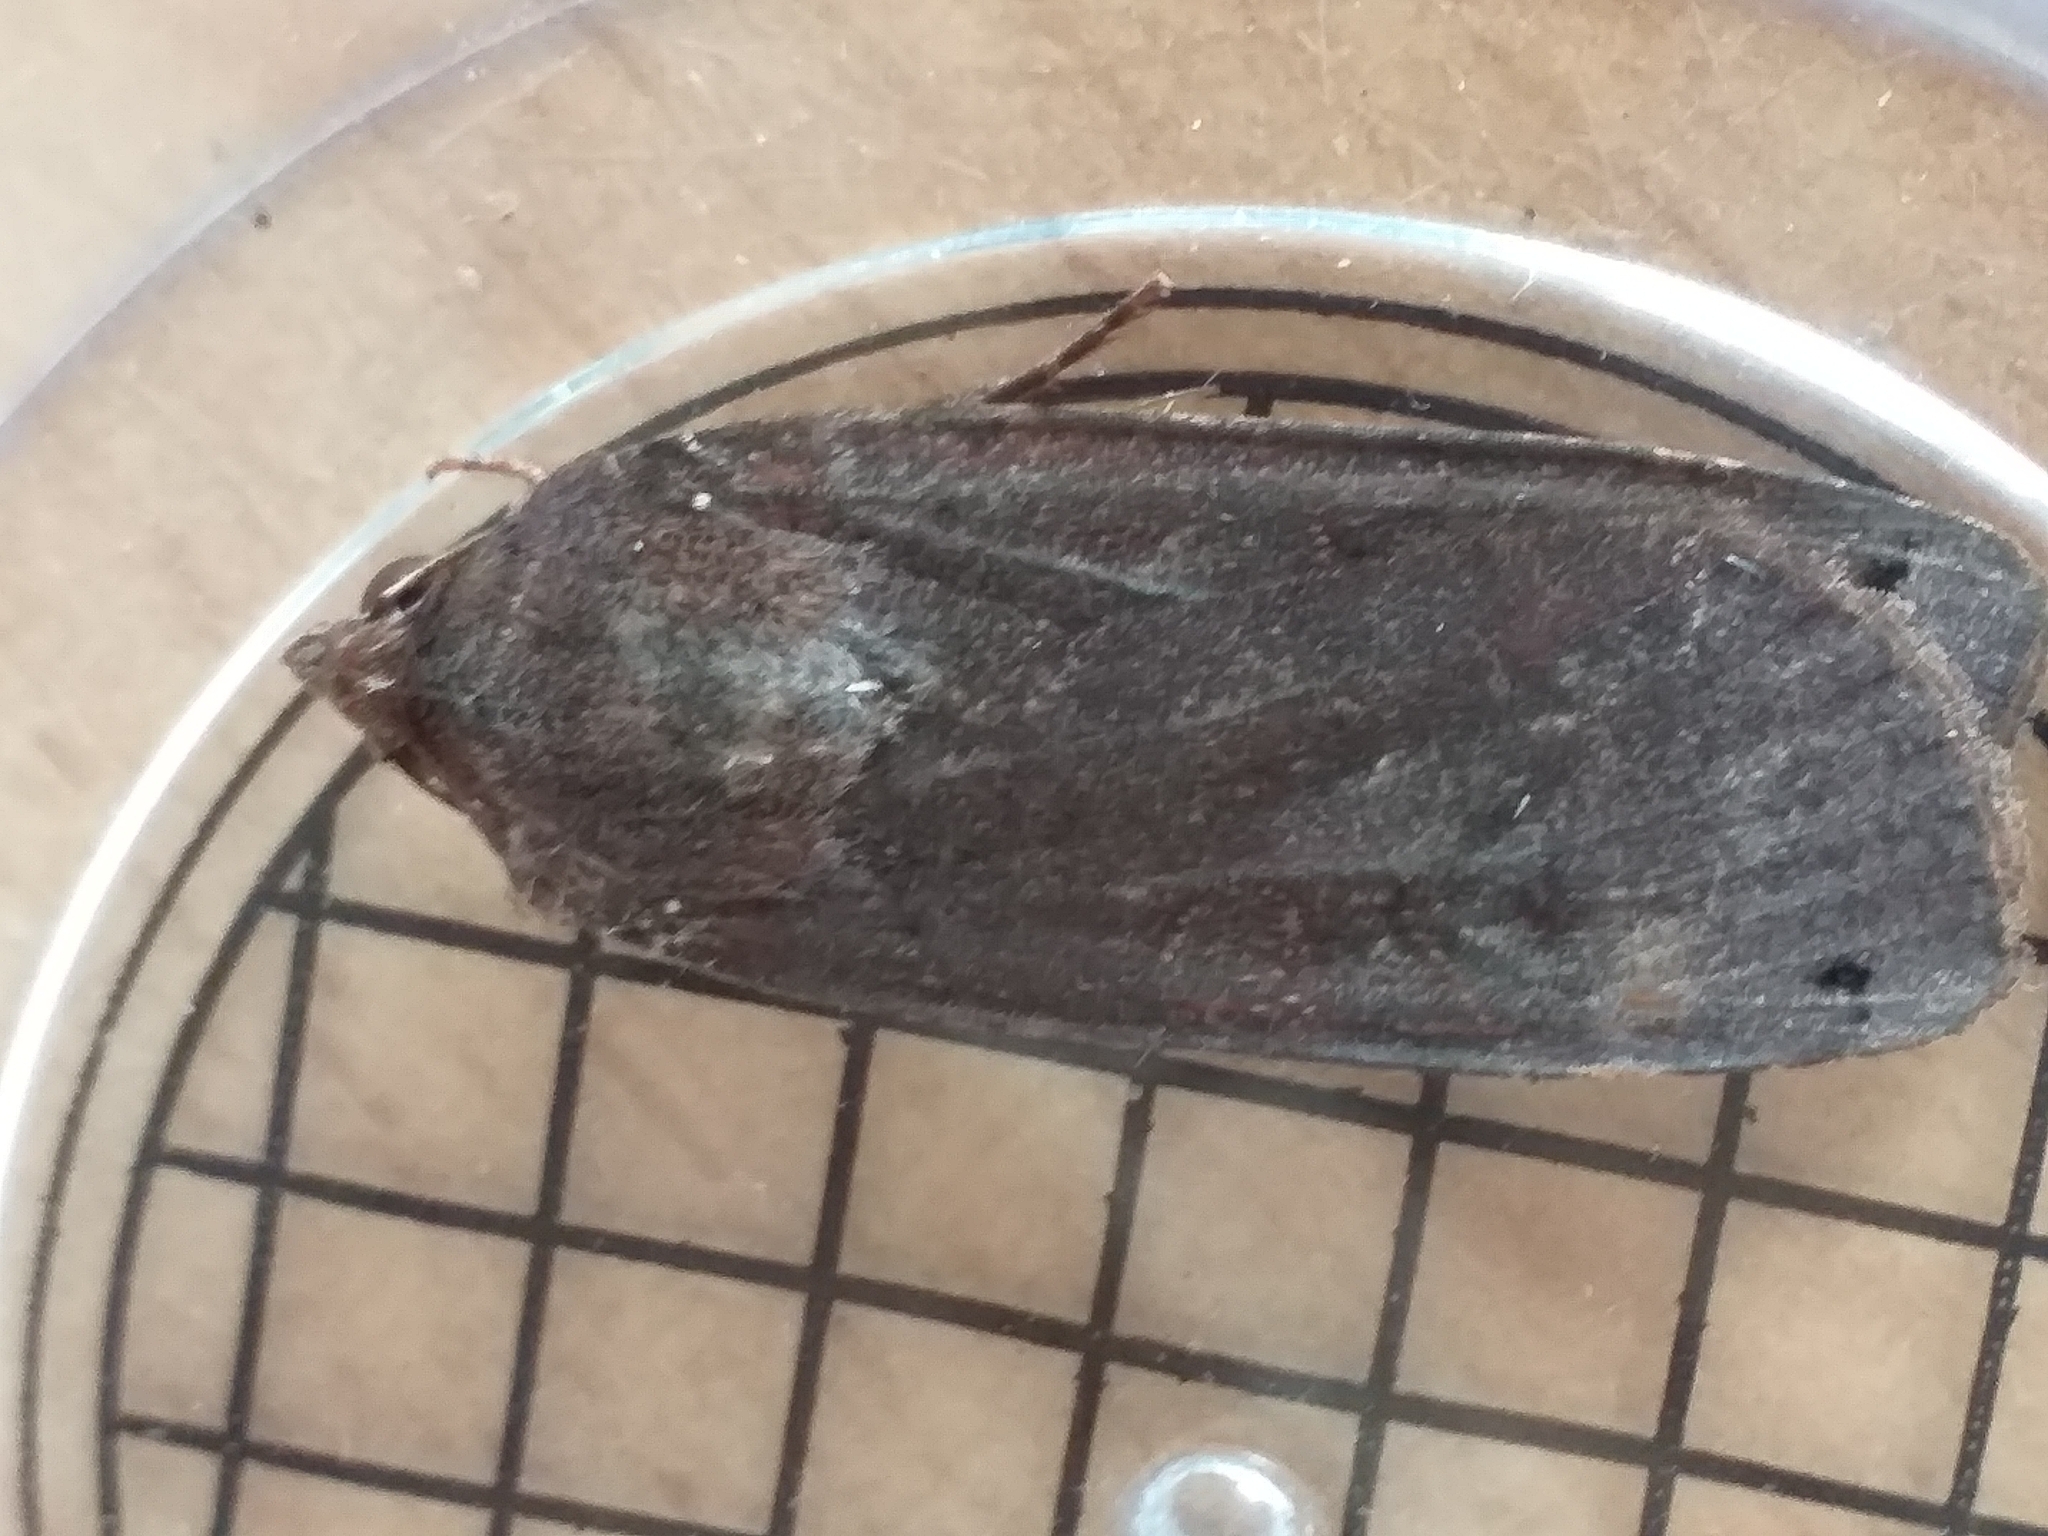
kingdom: Animalia
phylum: Arthropoda
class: Insecta
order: Lepidoptera
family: Noctuidae
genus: Noctua
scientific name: Noctua pronuba
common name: Large yellow underwing
